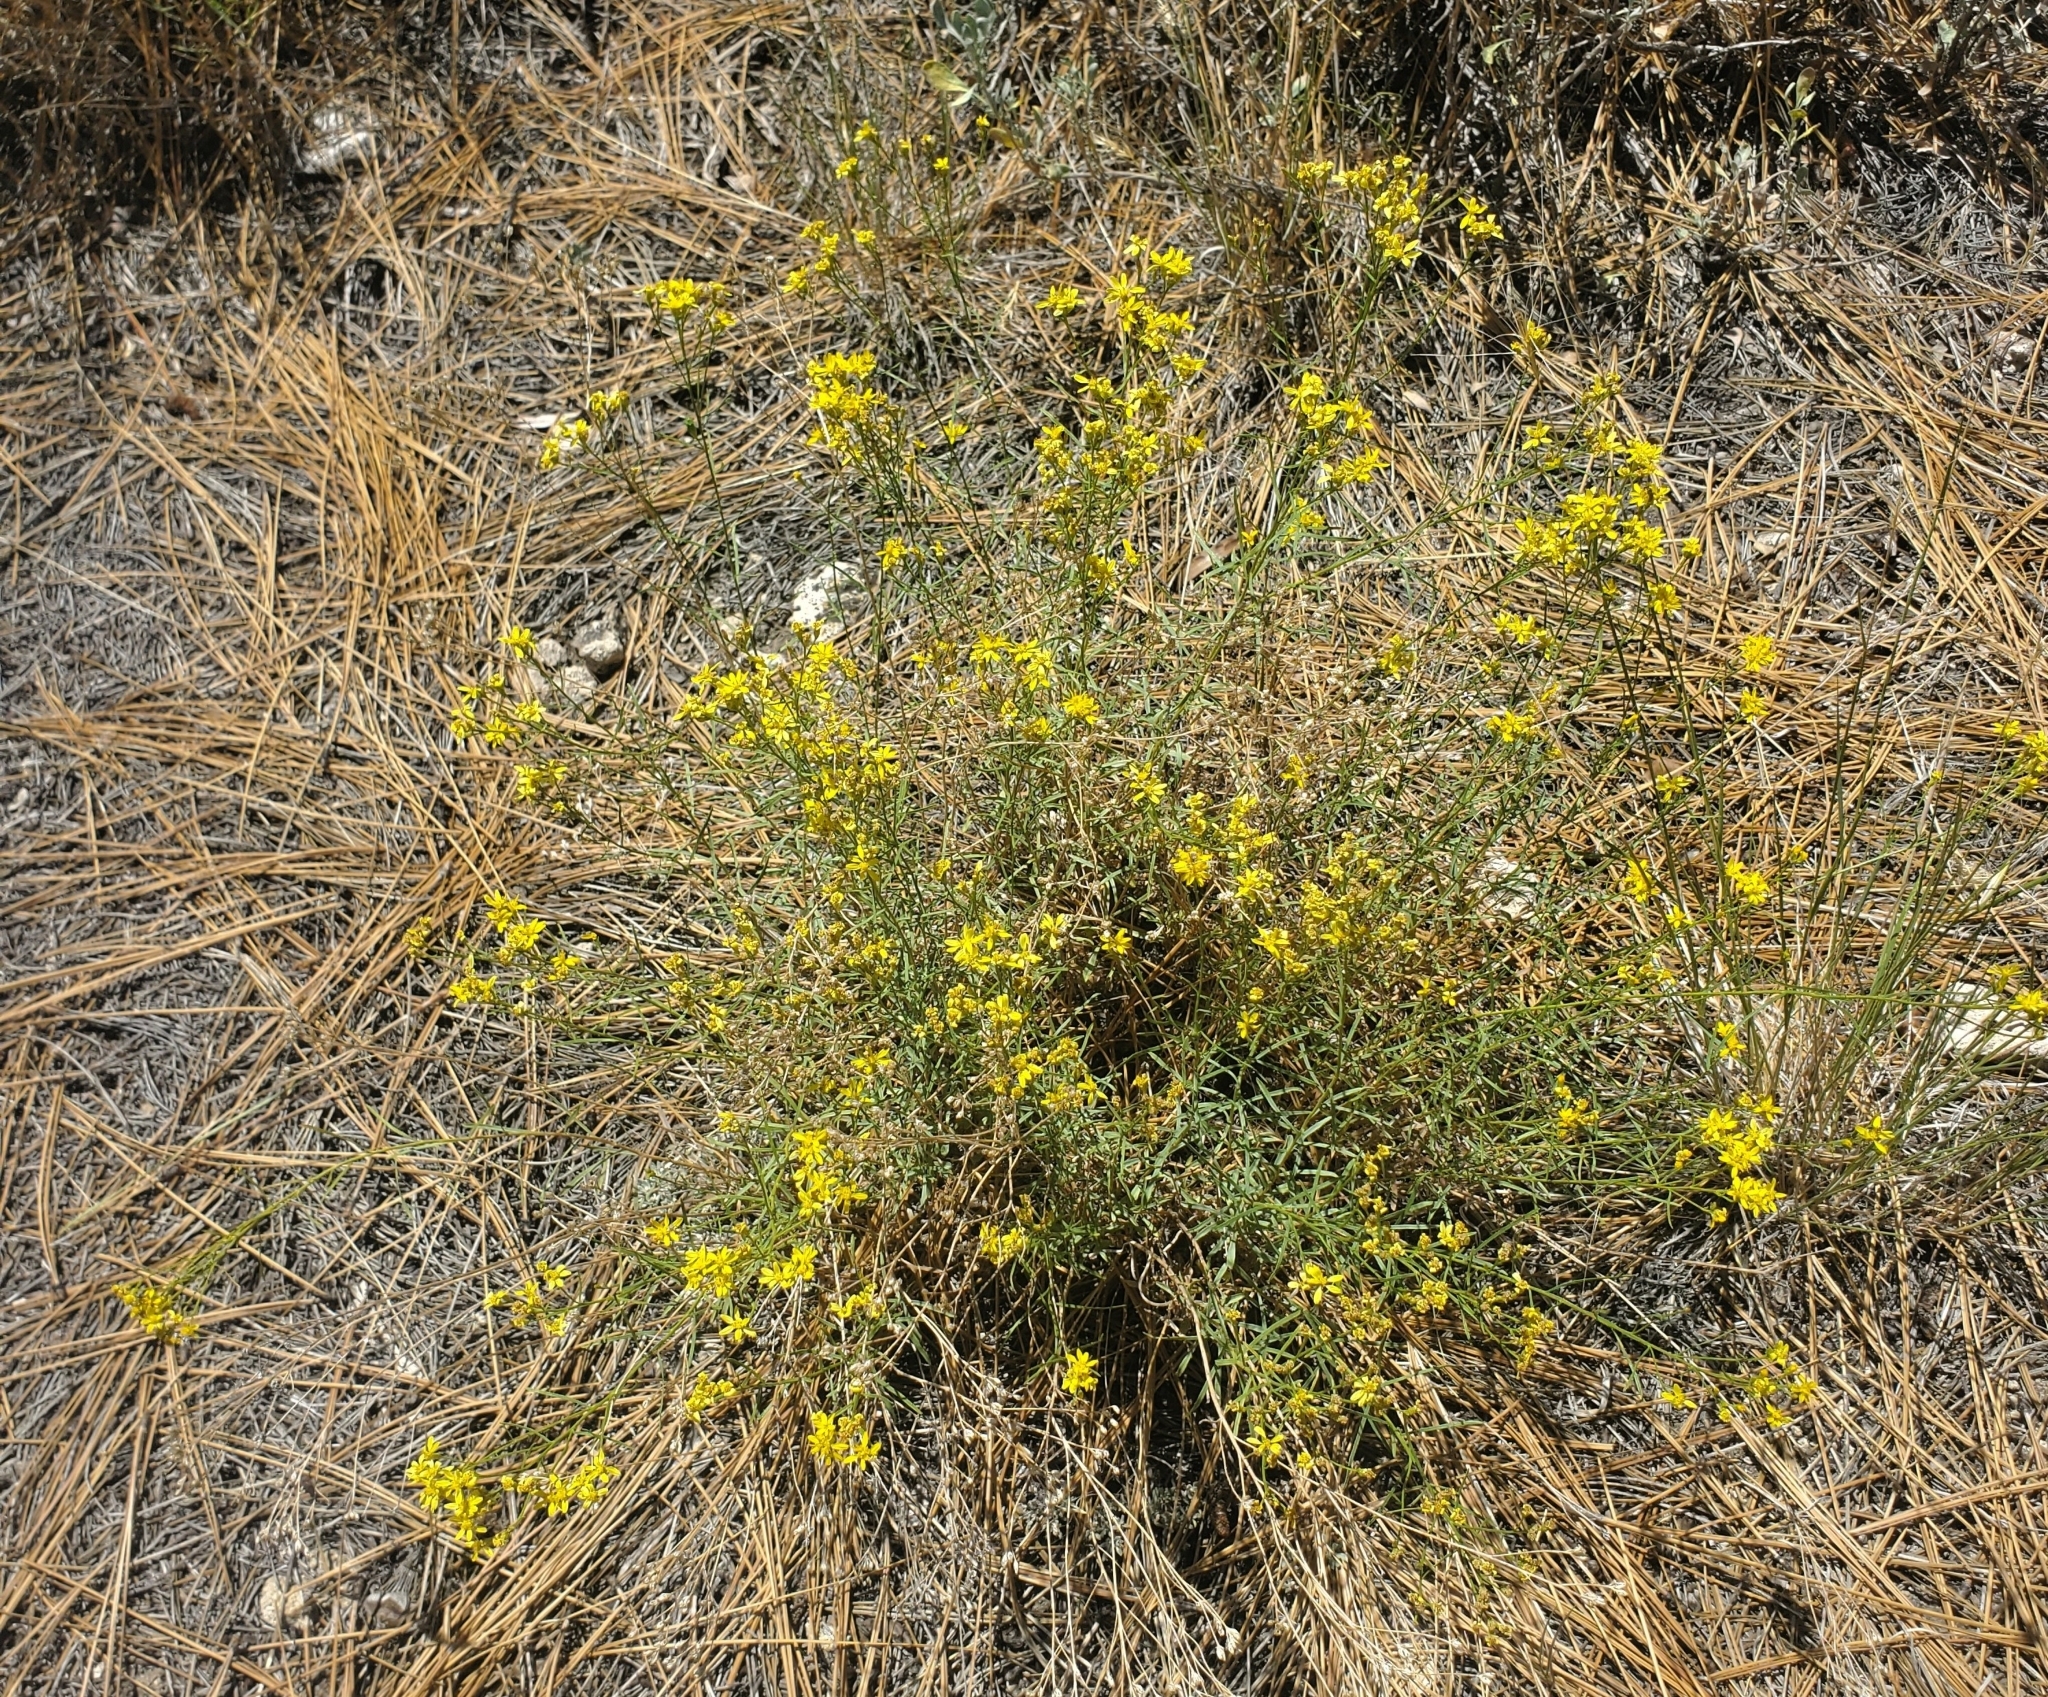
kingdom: Plantae
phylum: Tracheophyta
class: Magnoliopsida
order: Asterales
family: Asteraceae
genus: Gutierrezia
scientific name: Gutierrezia californica
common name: California matchweed
